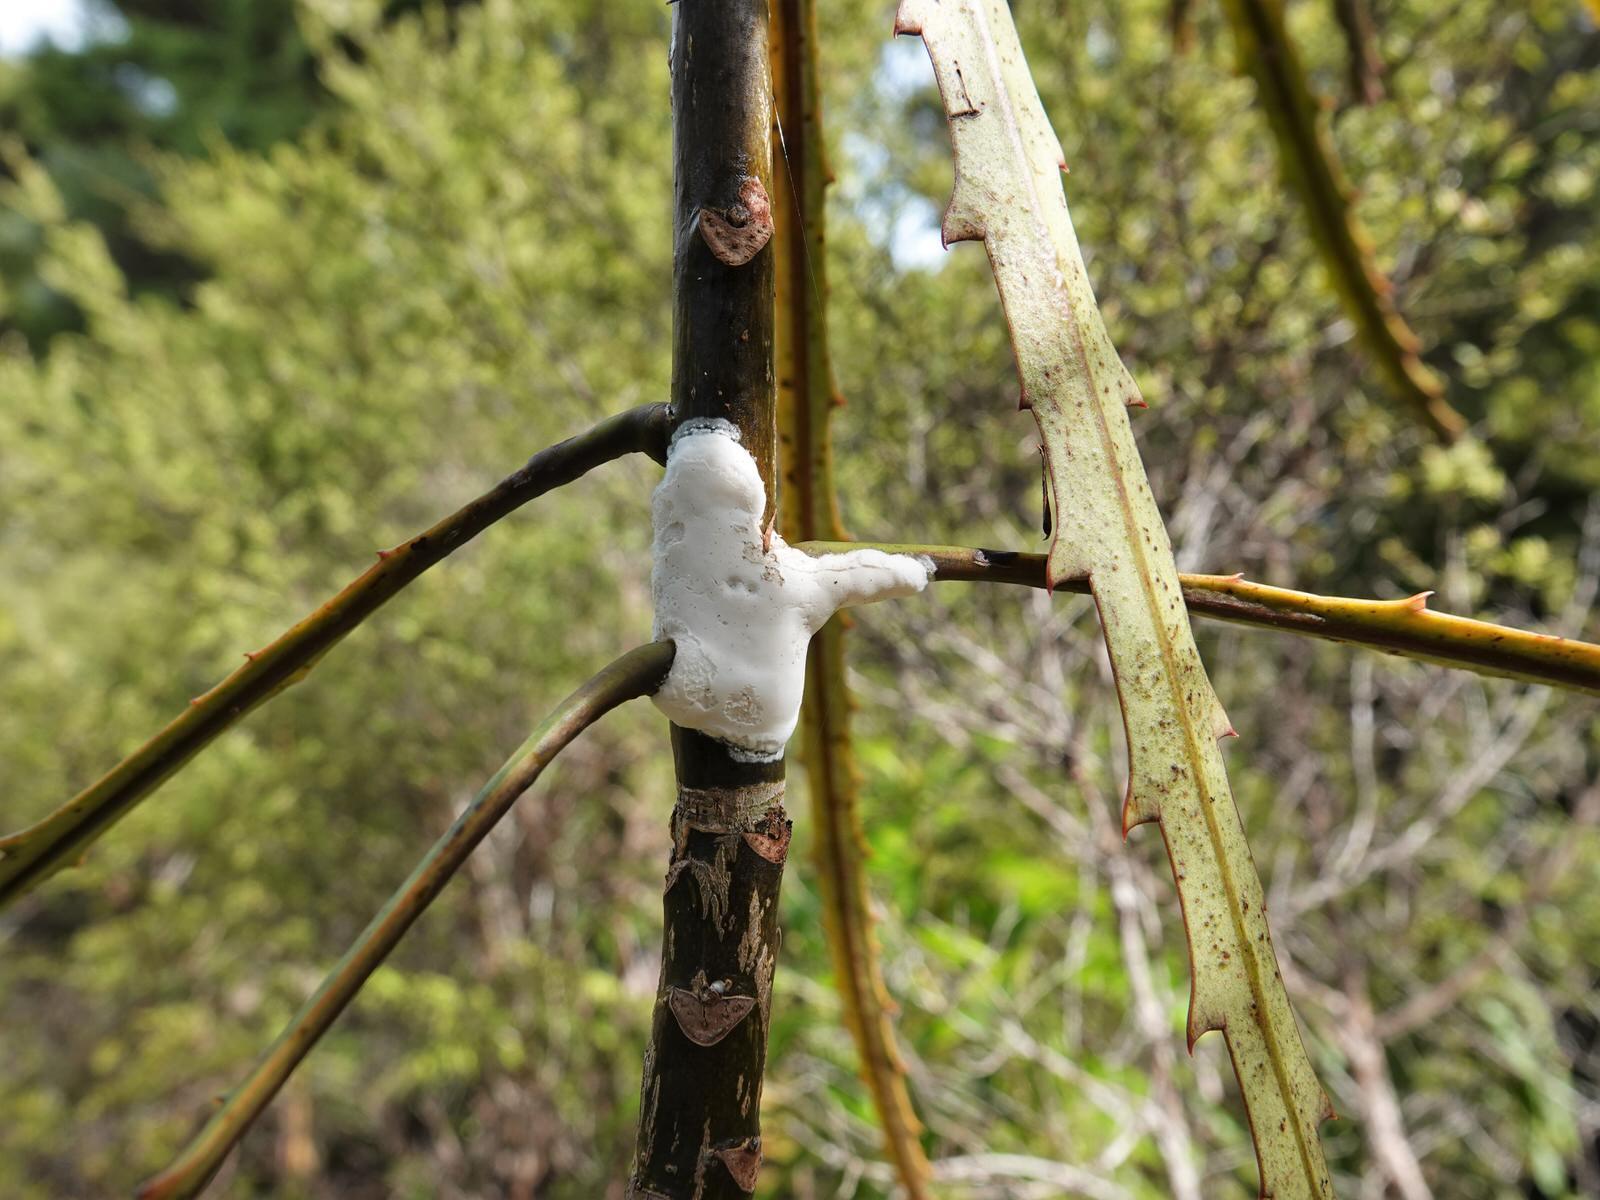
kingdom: Fungi
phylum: Basidiomycota
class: Pucciniomycetes
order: Septobasidiales
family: Septobasidiaceae
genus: Septobasidium
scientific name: Septobasidium simmondsii
